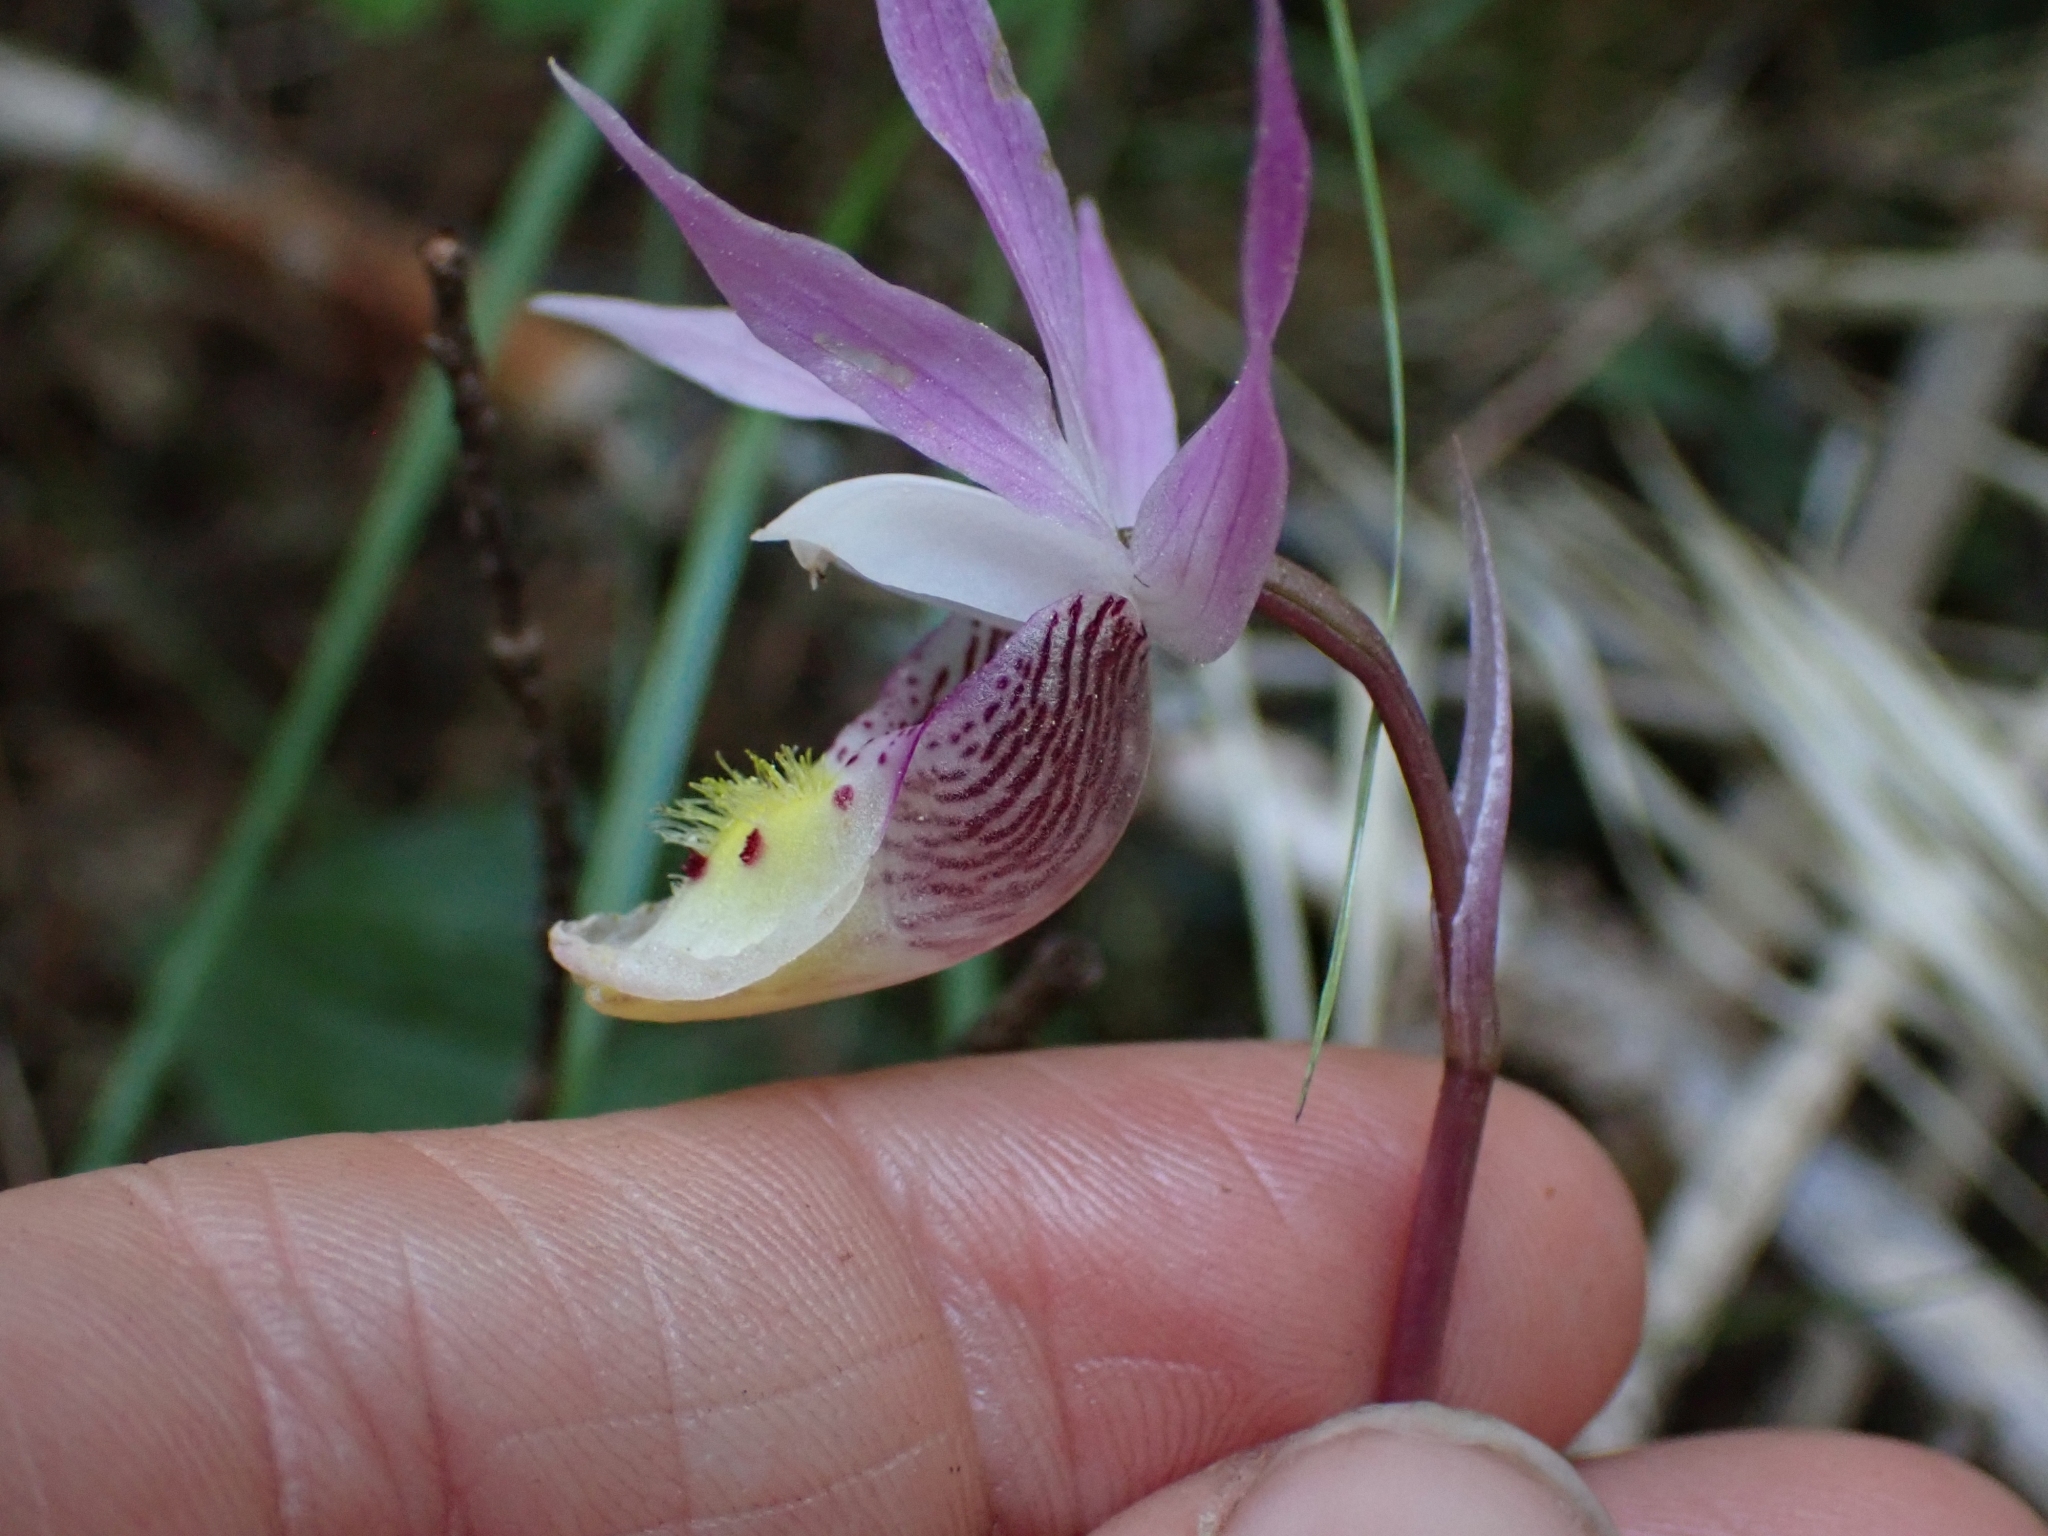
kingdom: Plantae
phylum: Tracheophyta
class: Liliopsida
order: Asparagales
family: Orchidaceae
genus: Calypso
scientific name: Calypso bulbosa
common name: Calypso
